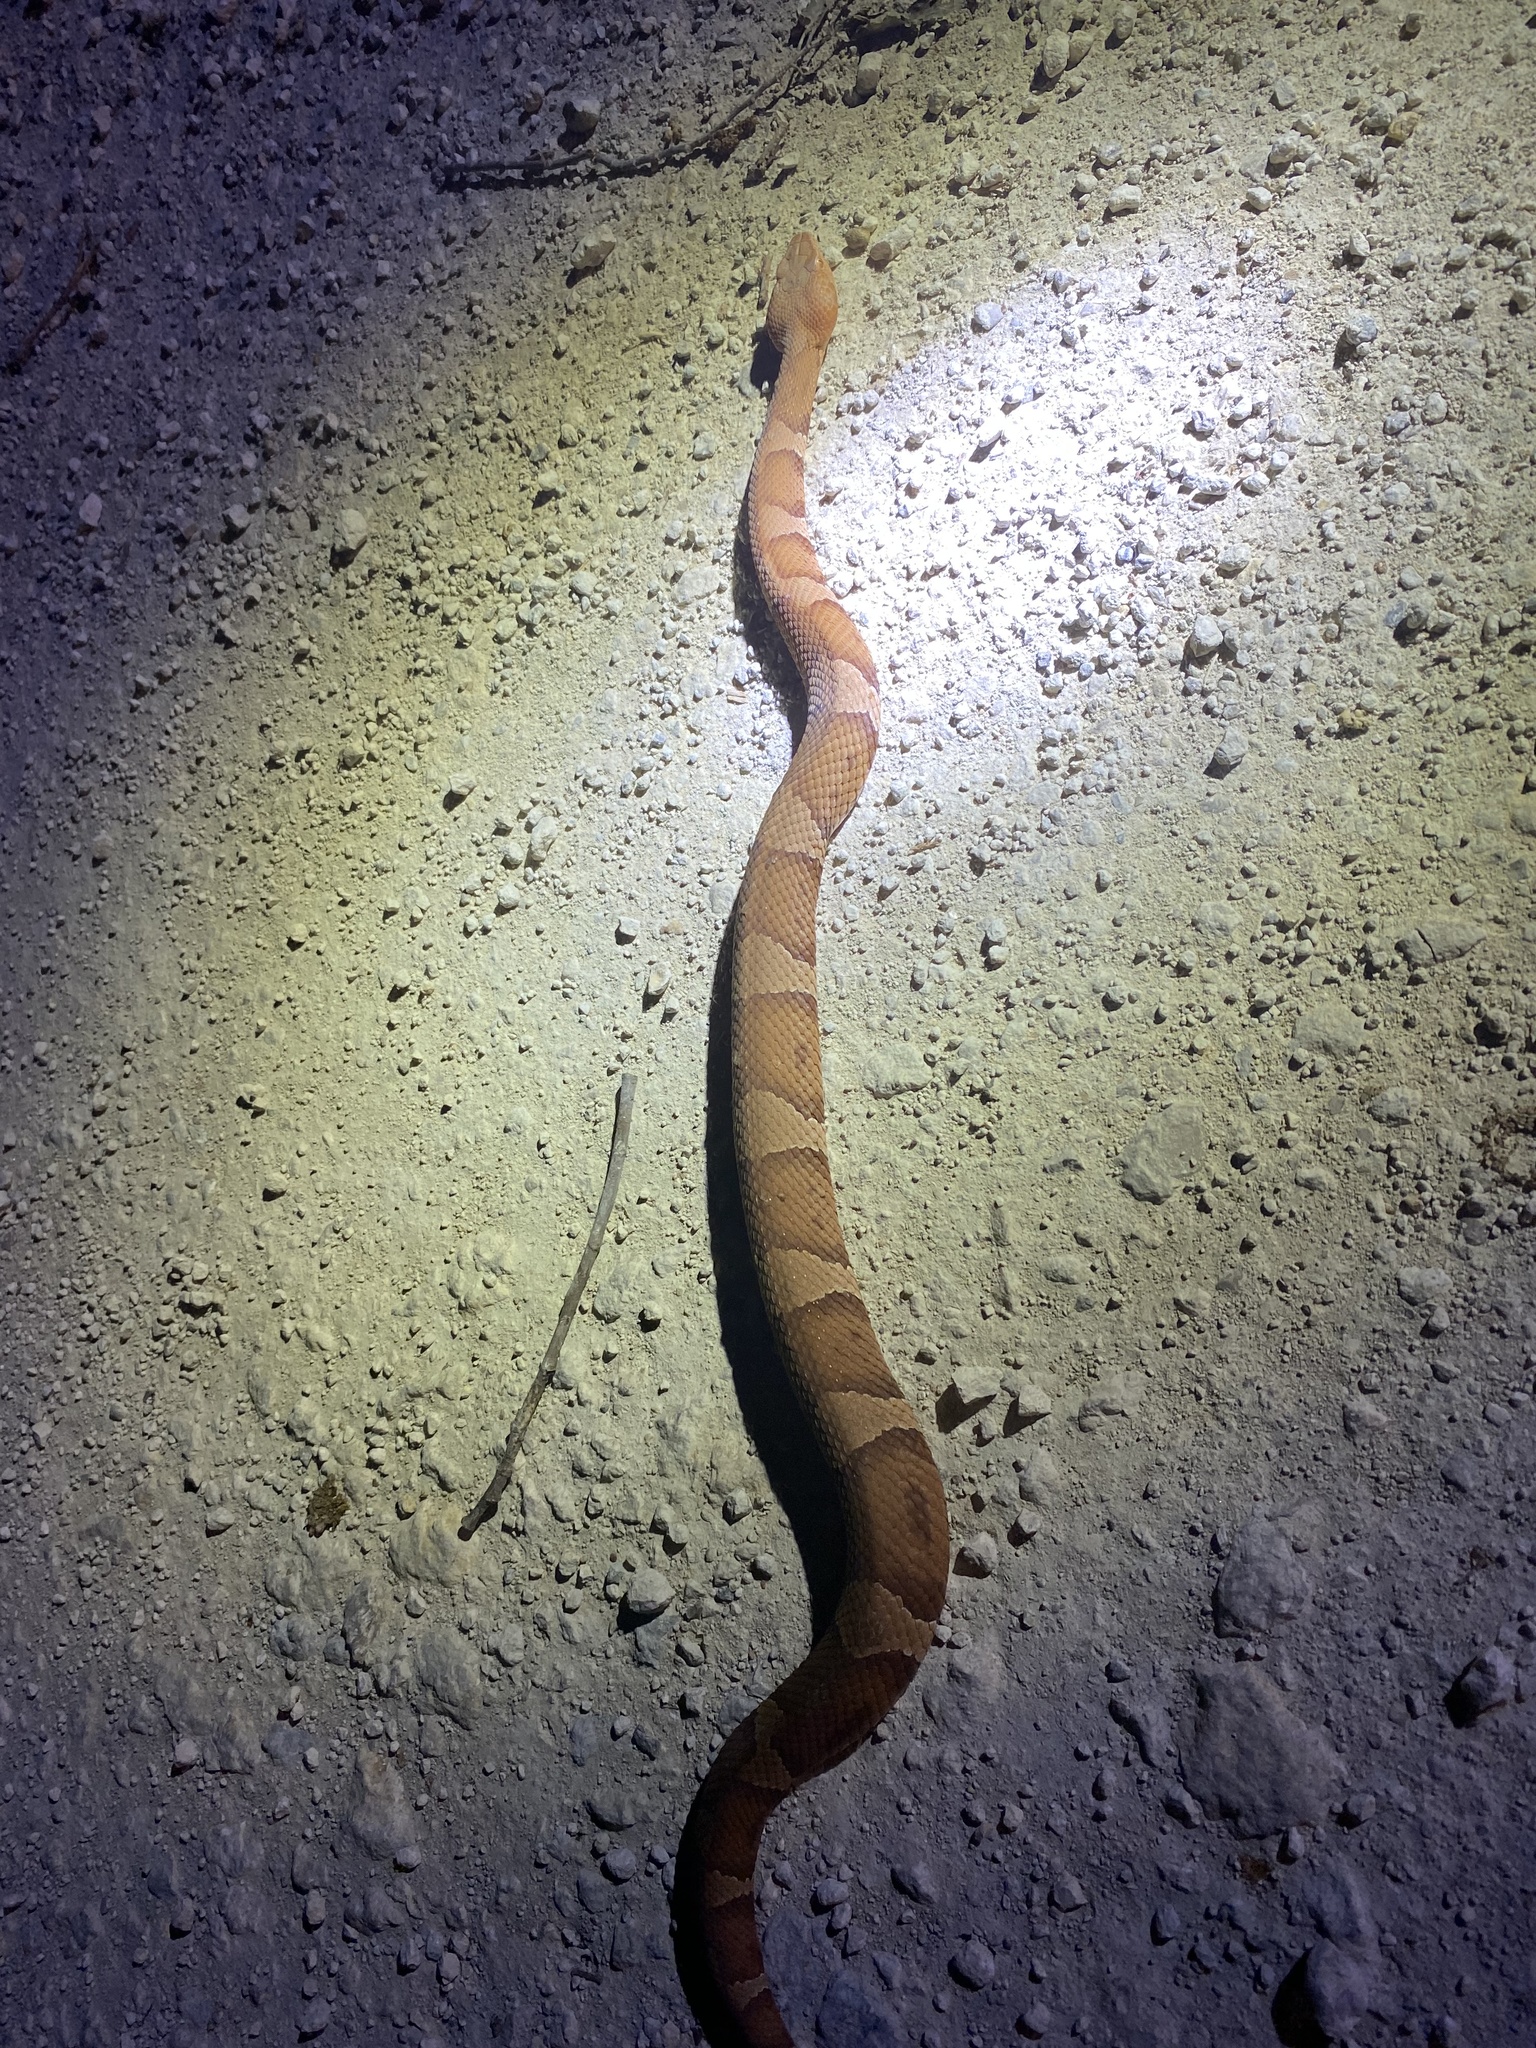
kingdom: Animalia
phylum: Chordata
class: Squamata
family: Viperidae
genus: Agkistrodon
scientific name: Agkistrodon laticinctus
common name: Broad-banded copperhead
